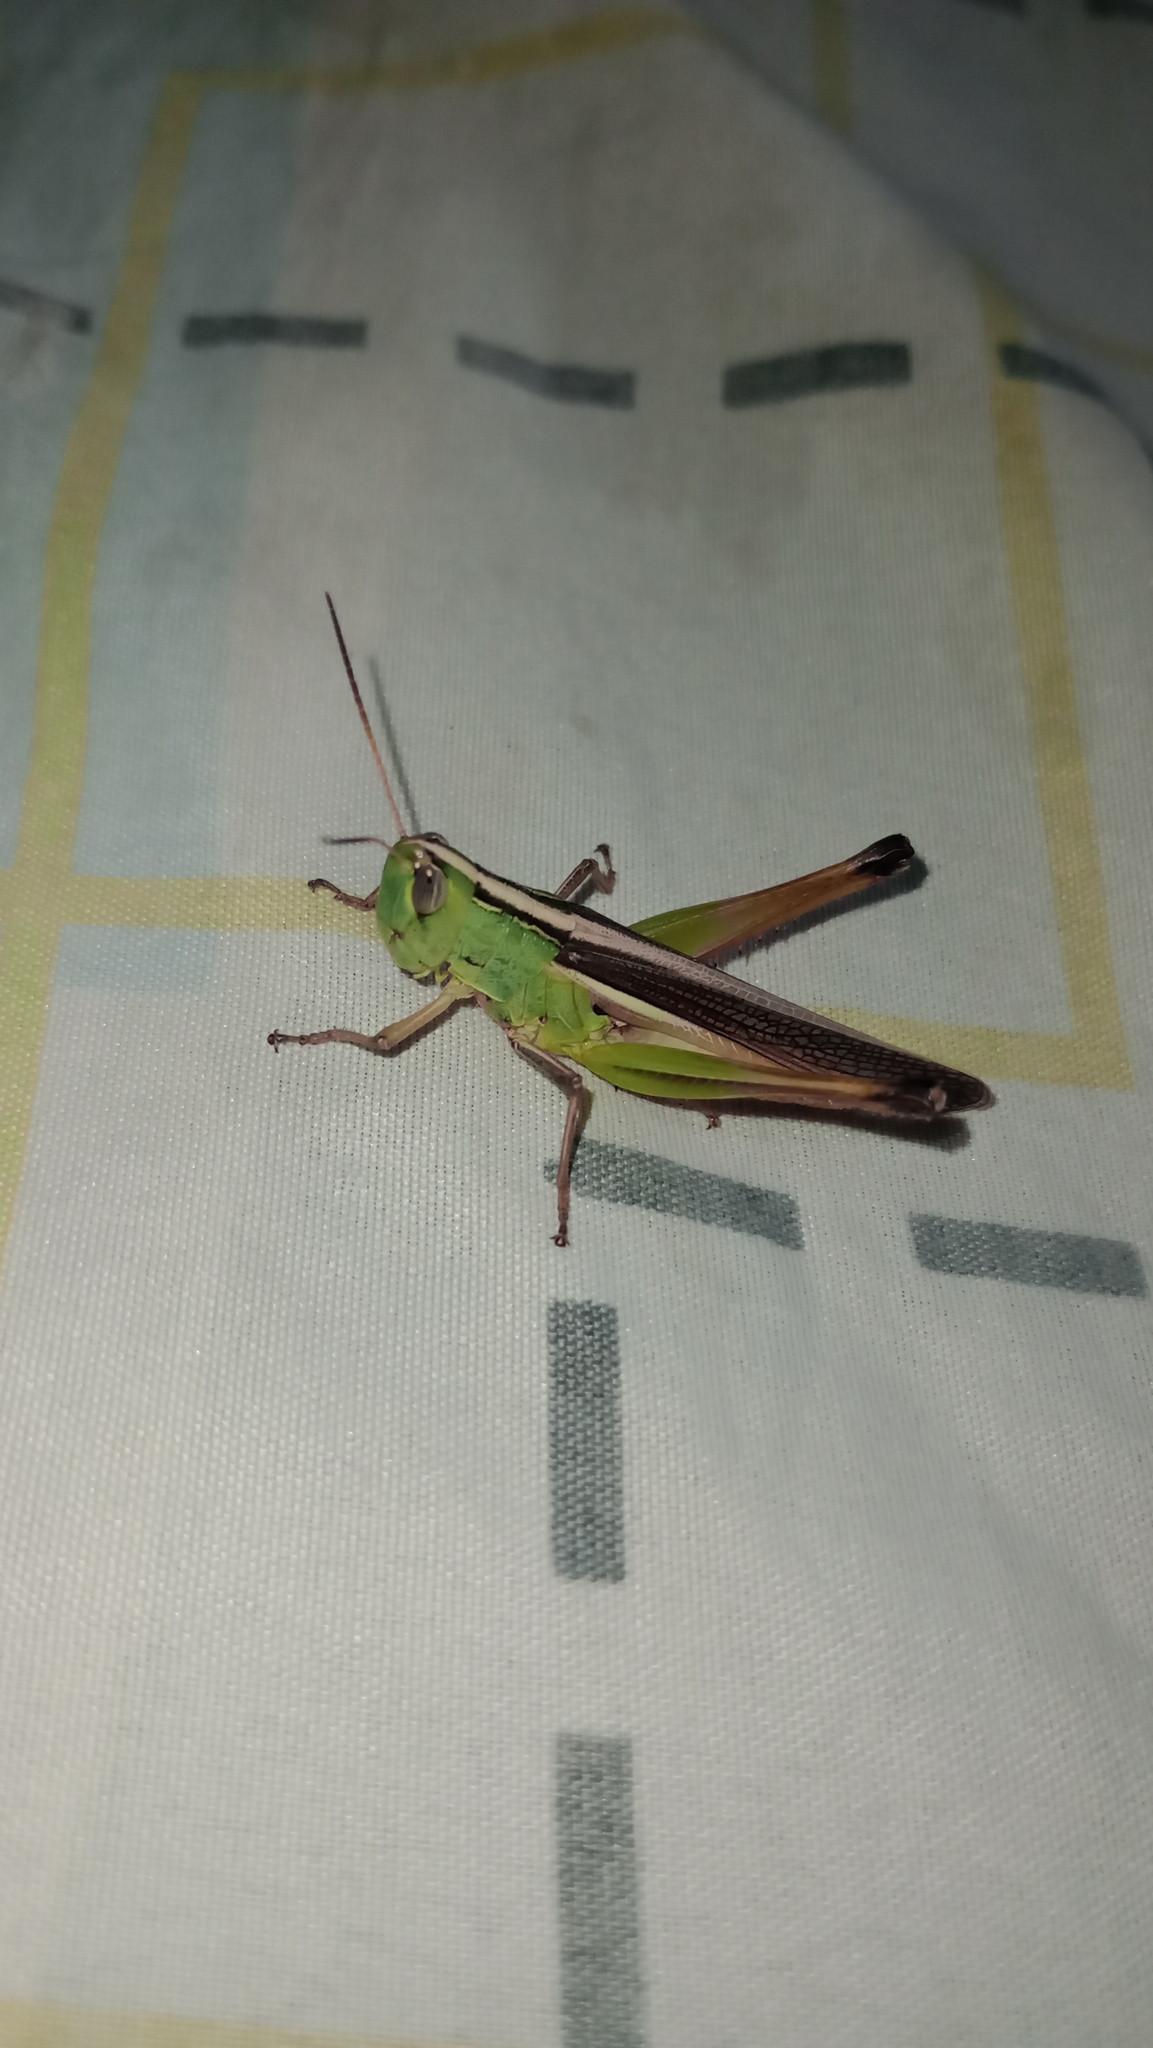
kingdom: Animalia
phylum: Arthropoda
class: Insecta
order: Orthoptera
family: Acrididae
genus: Staurorhectus
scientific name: Staurorhectus longicornis
